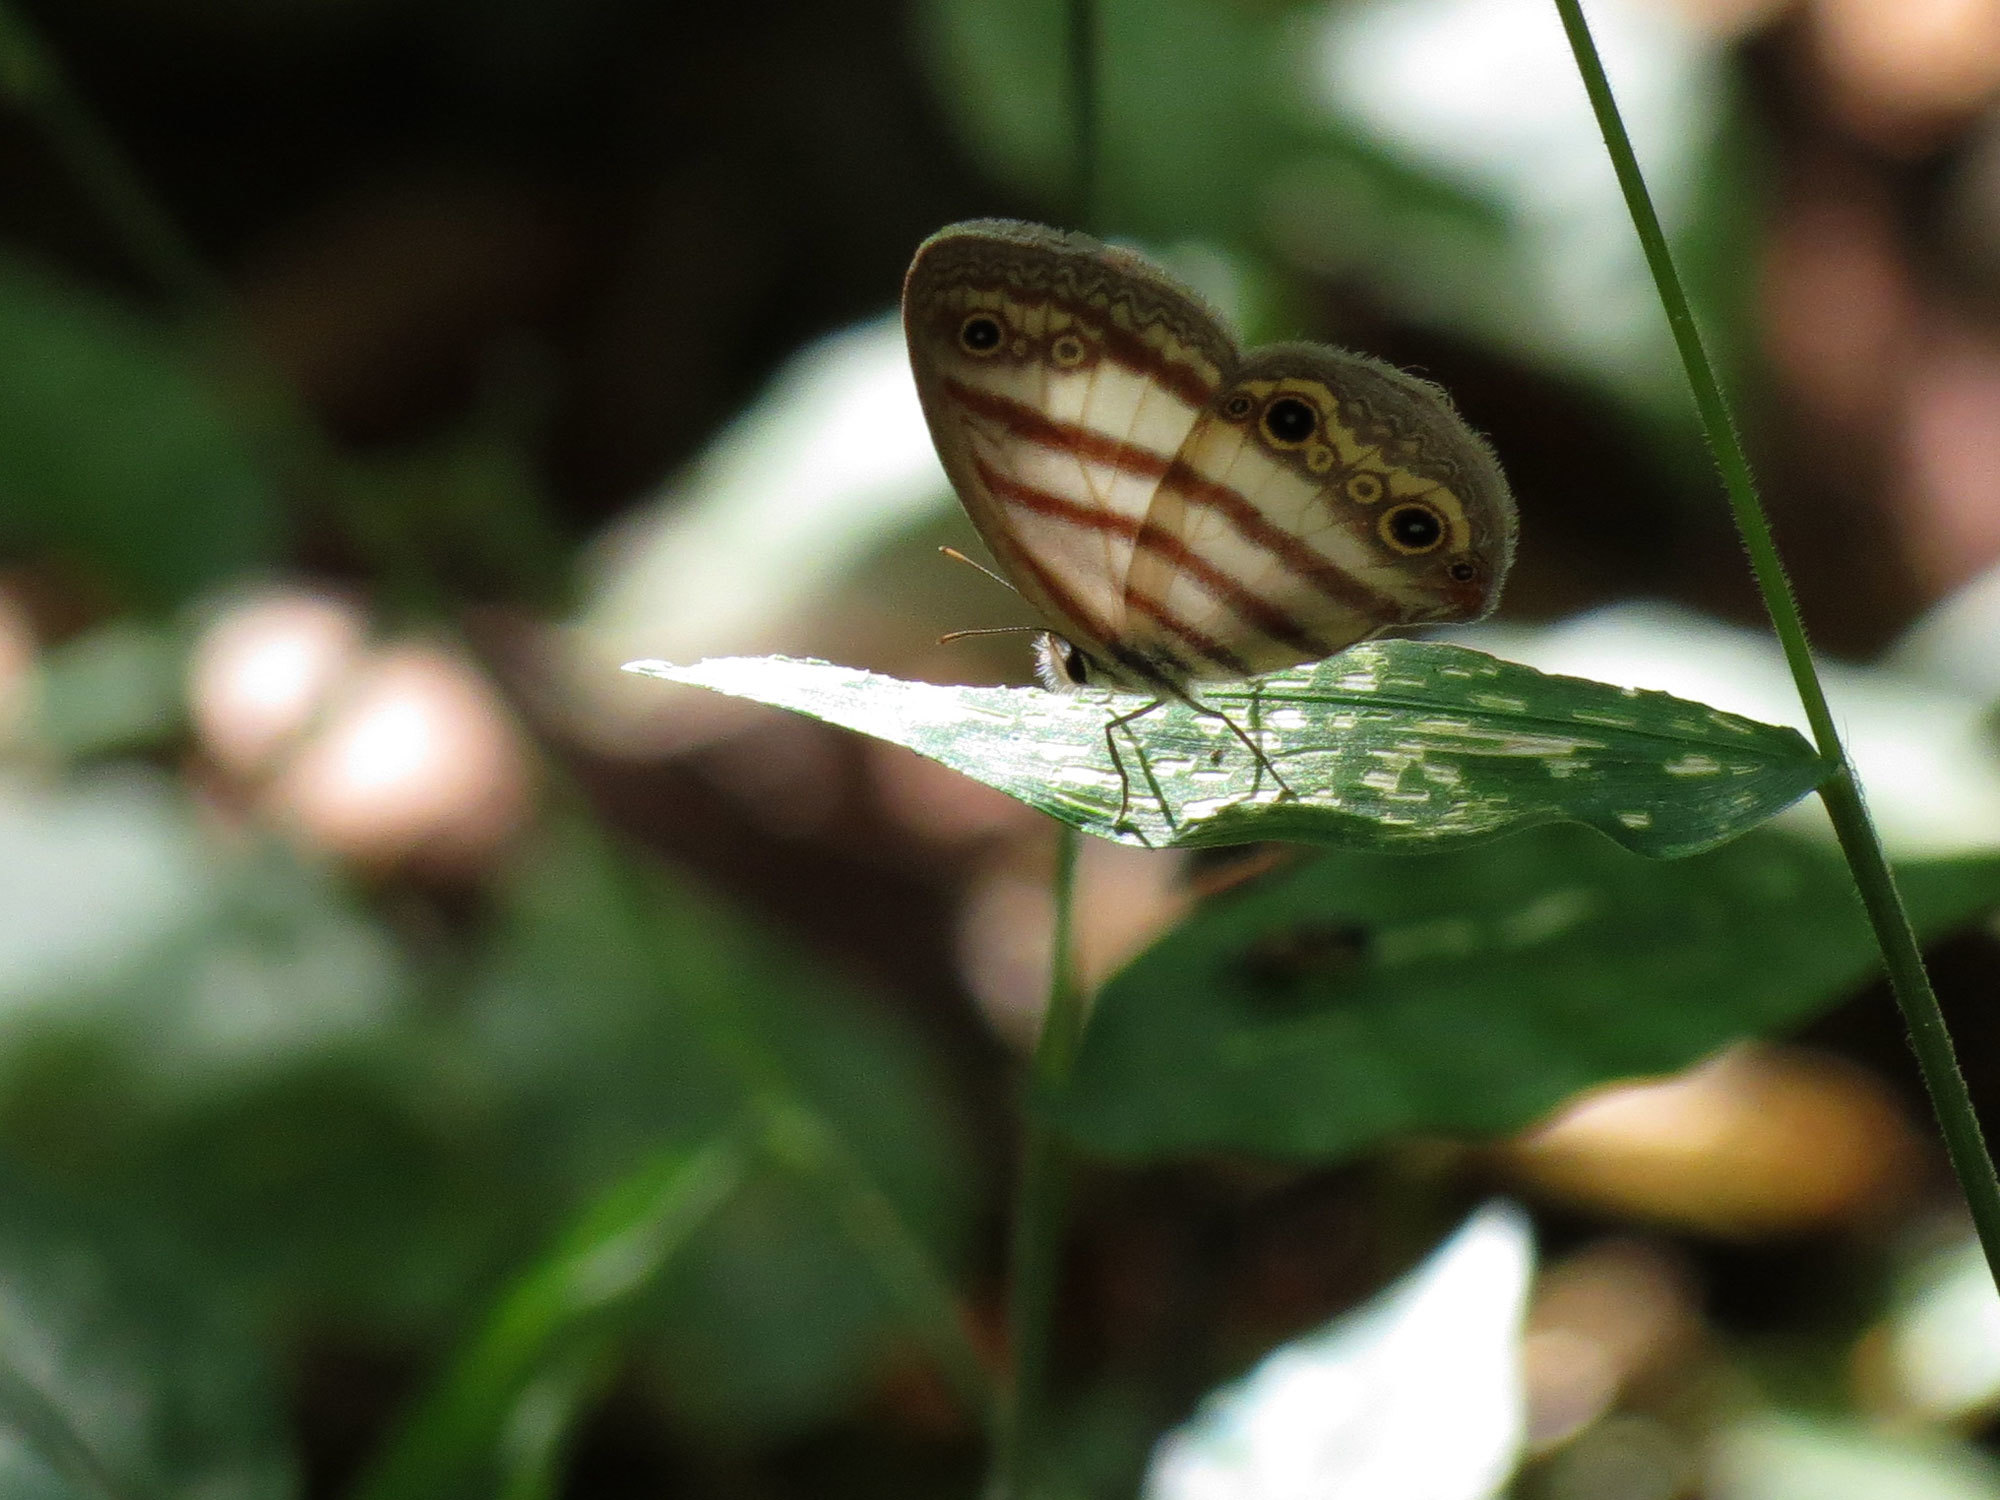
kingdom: Animalia
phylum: Arthropoda
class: Insecta
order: Lepidoptera
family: Nymphalidae
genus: Euptychia
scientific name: Euptychia mollina
